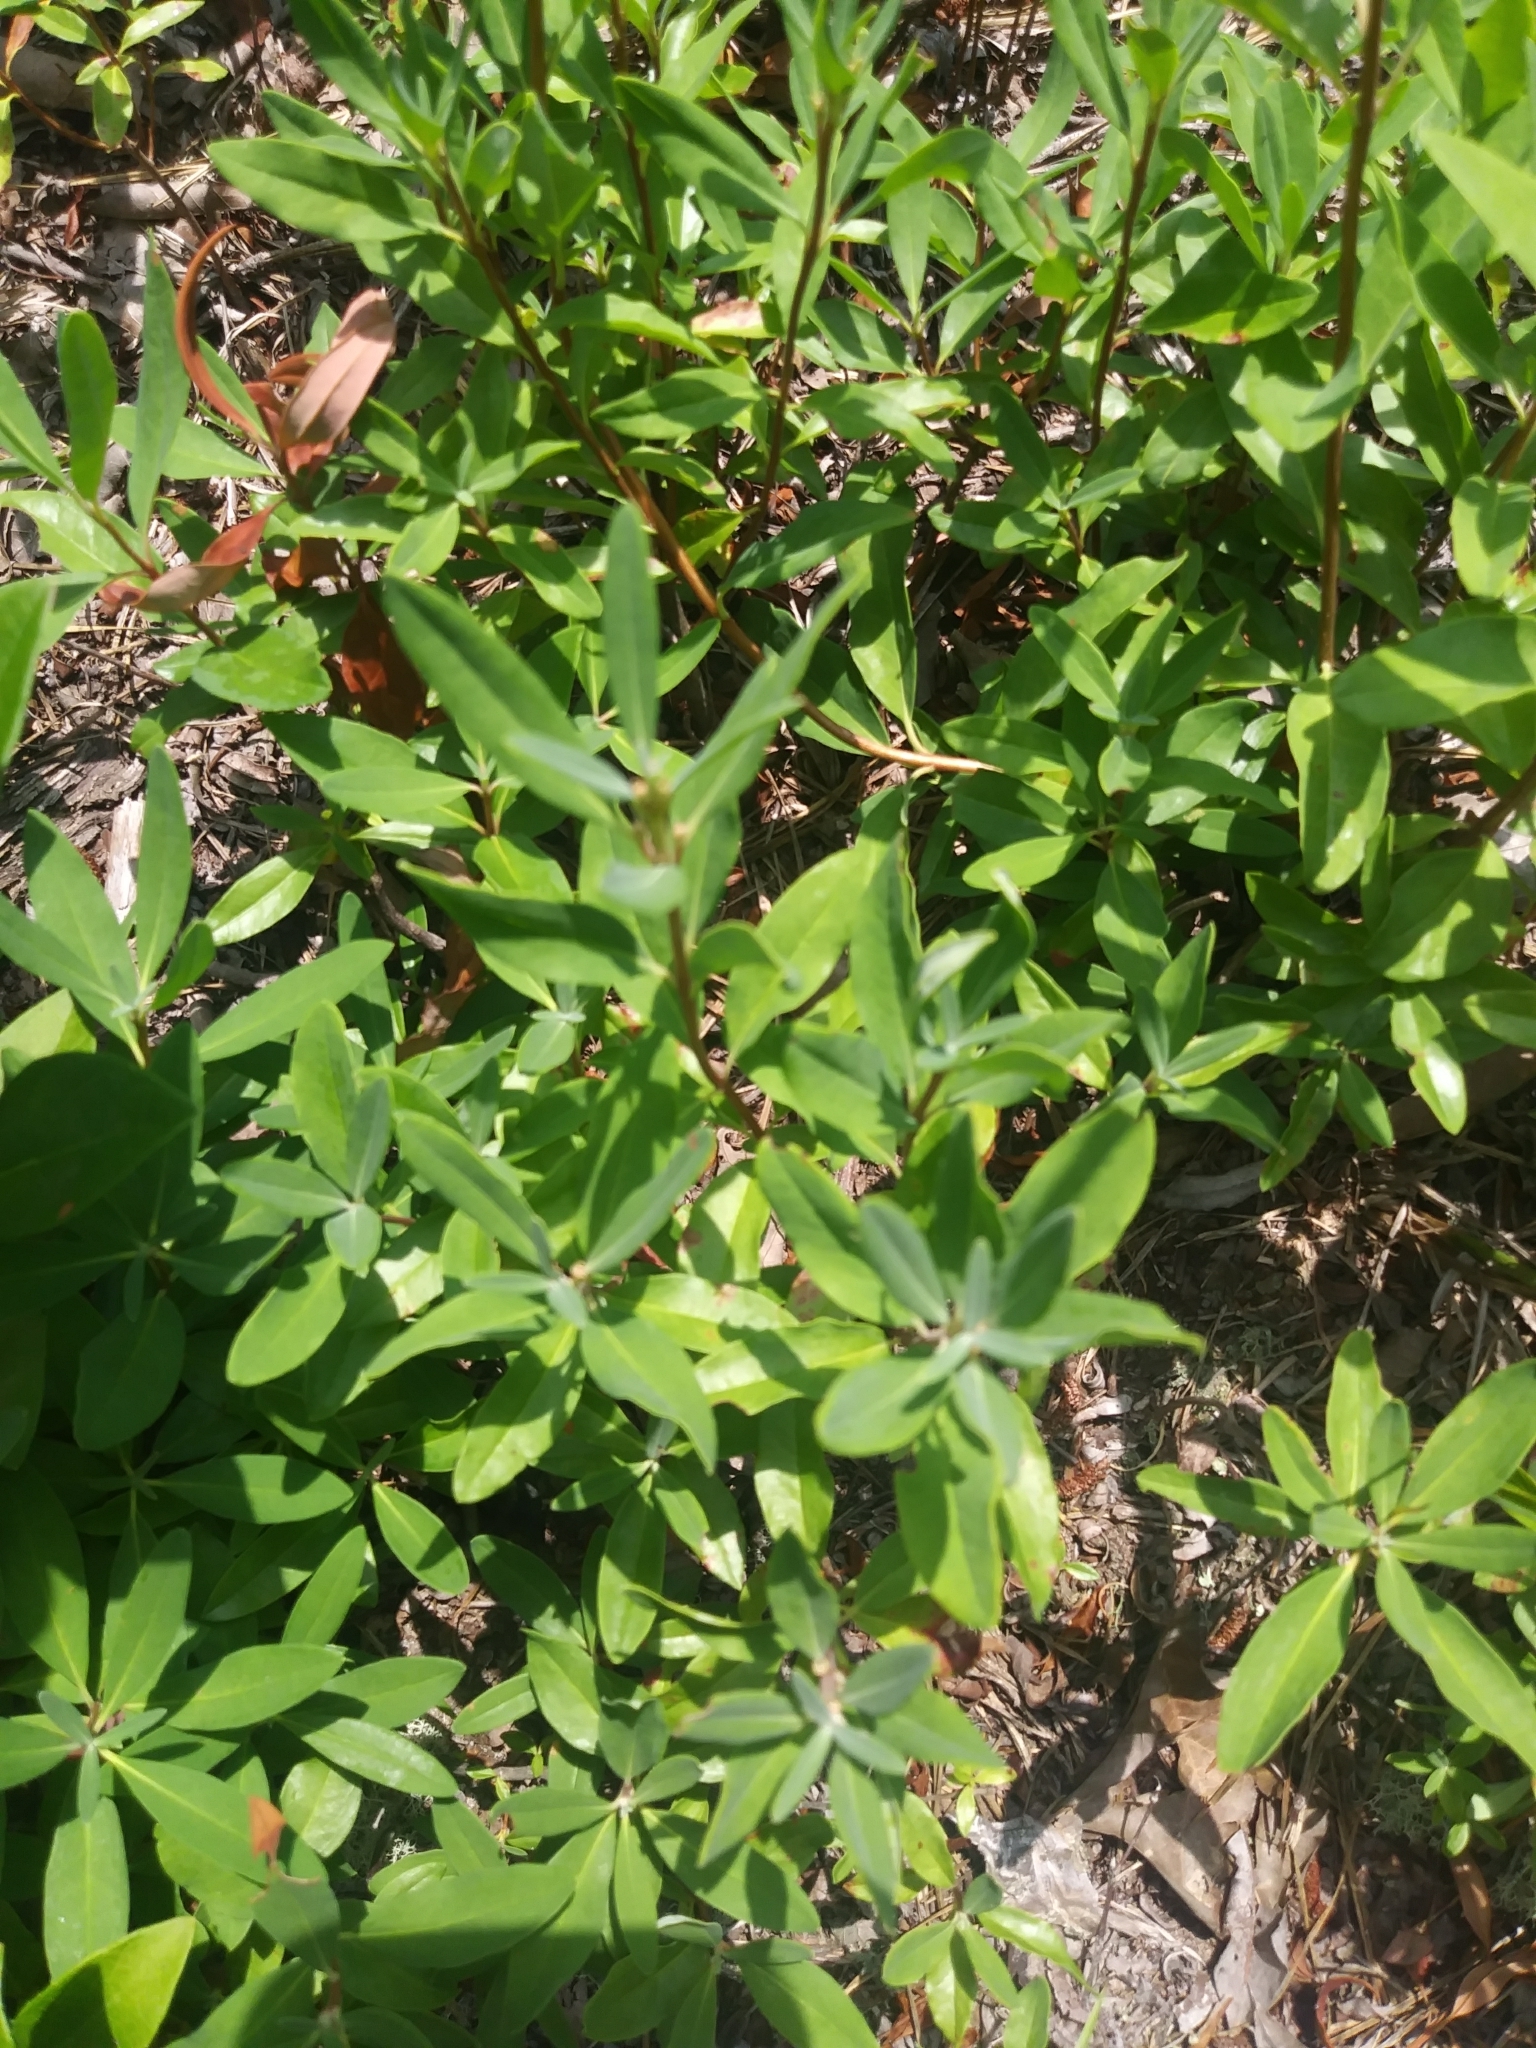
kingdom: Plantae
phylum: Tracheophyta
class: Magnoliopsida
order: Ericales
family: Ericaceae
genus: Kalmia
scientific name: Kalmia angustifolia
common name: Sheep-laurel
